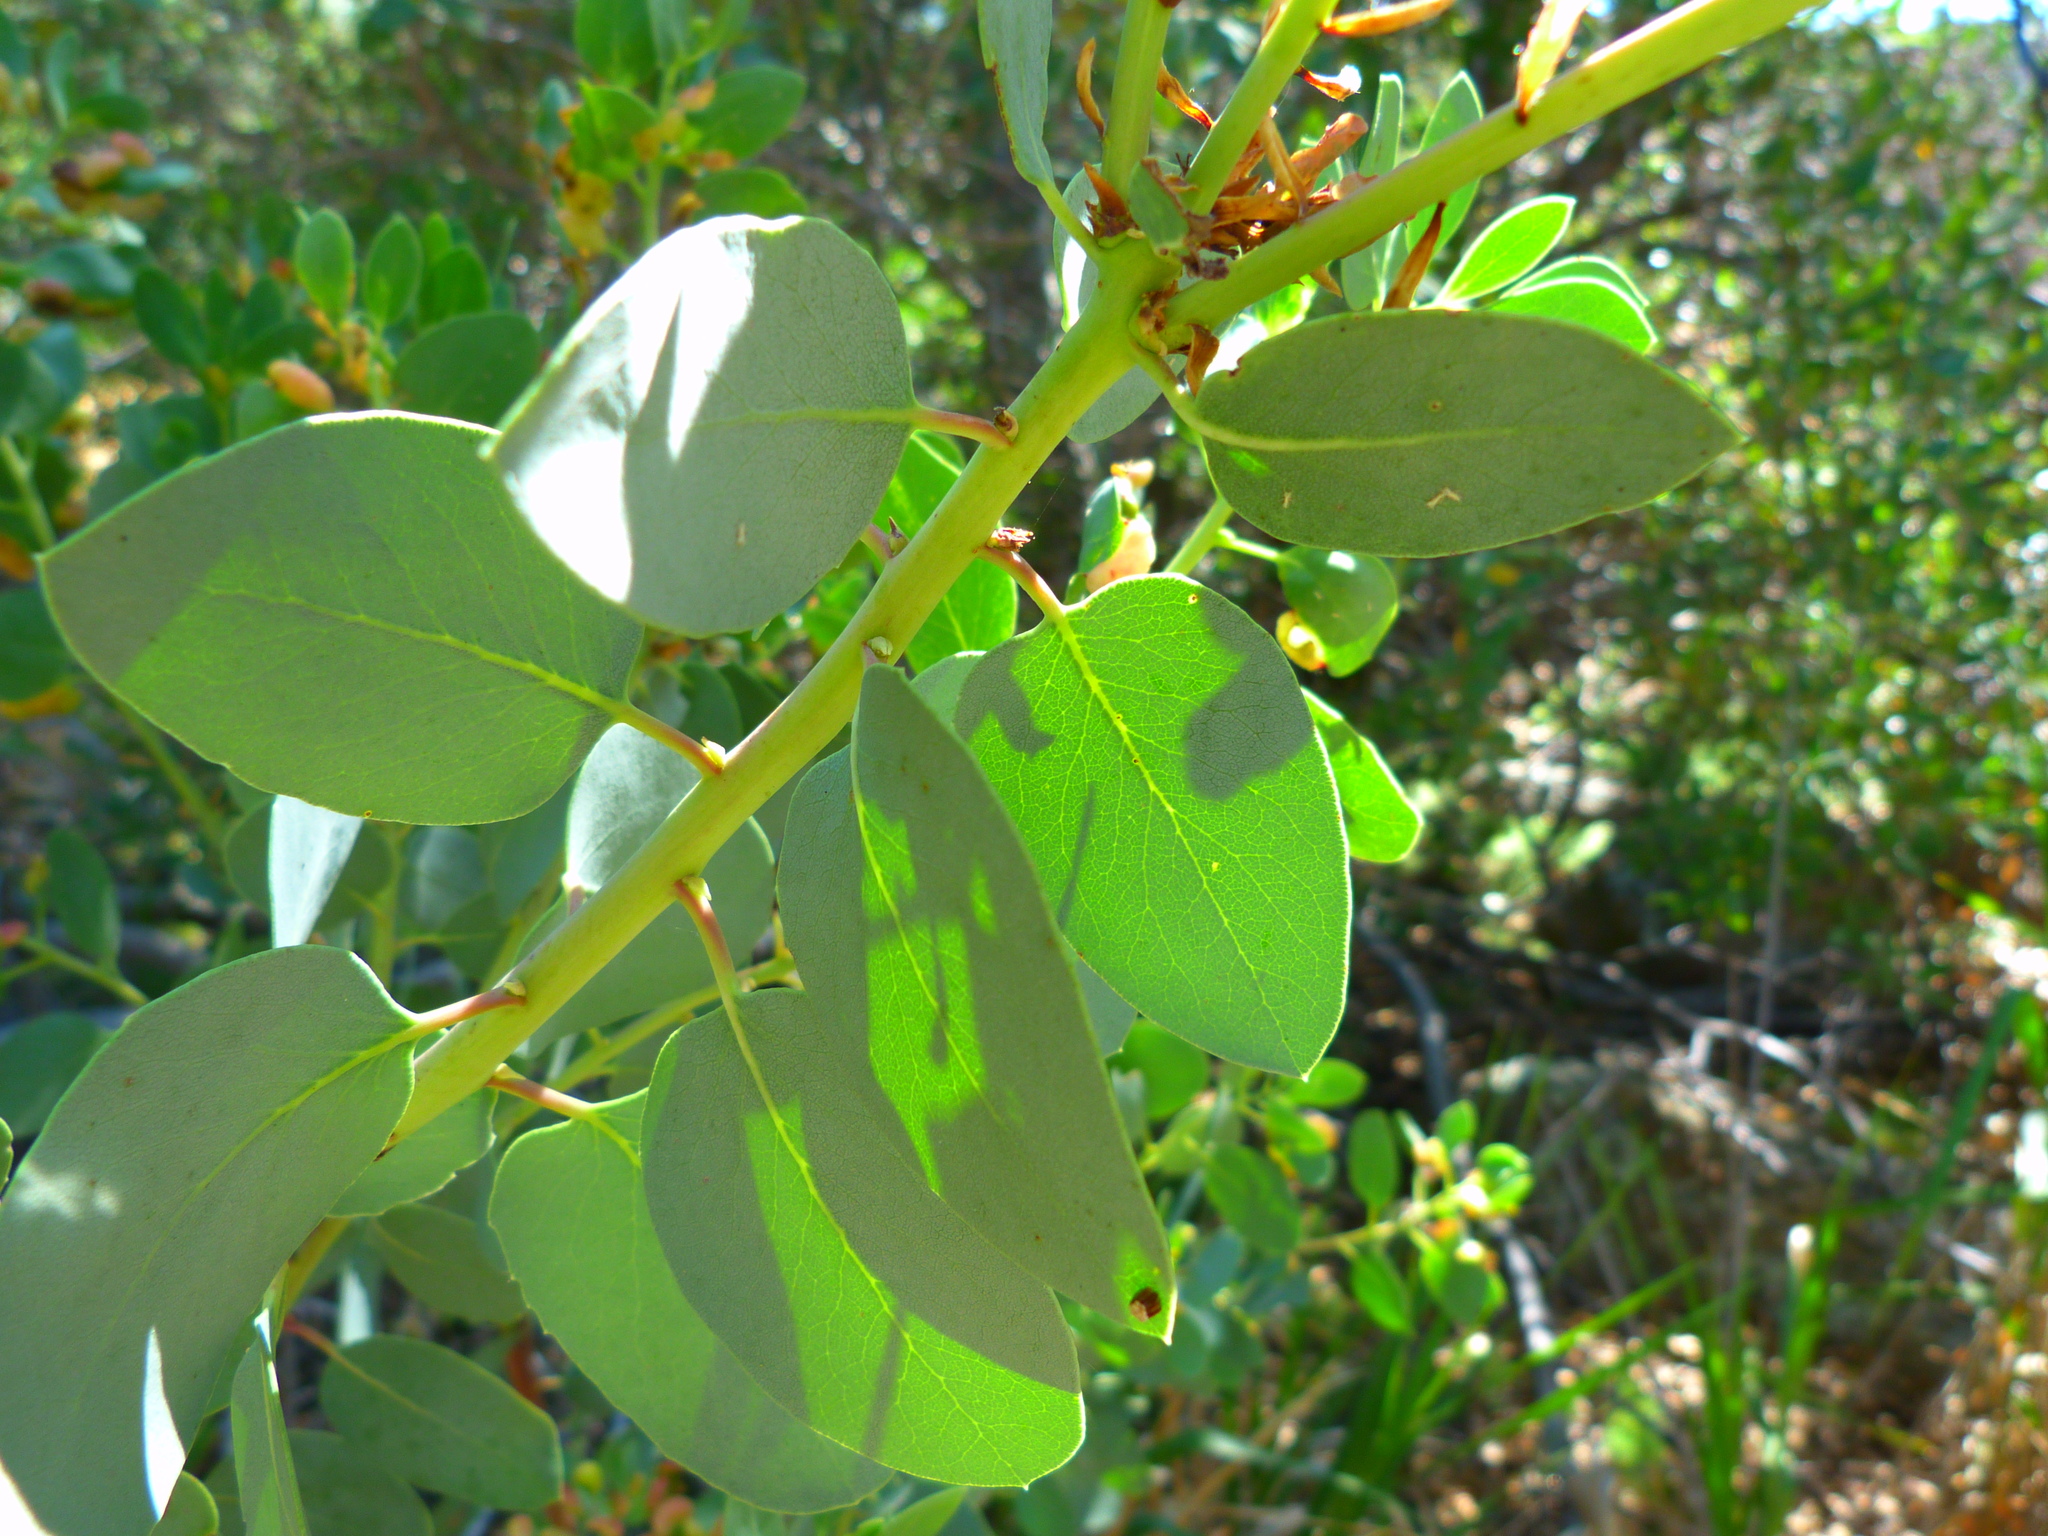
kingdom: Plantae
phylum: Tracheophyta
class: Magnoliopsida
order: Ericales
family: Ericaceae
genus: Arctostaphylos
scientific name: Arctostaphylos glauca
